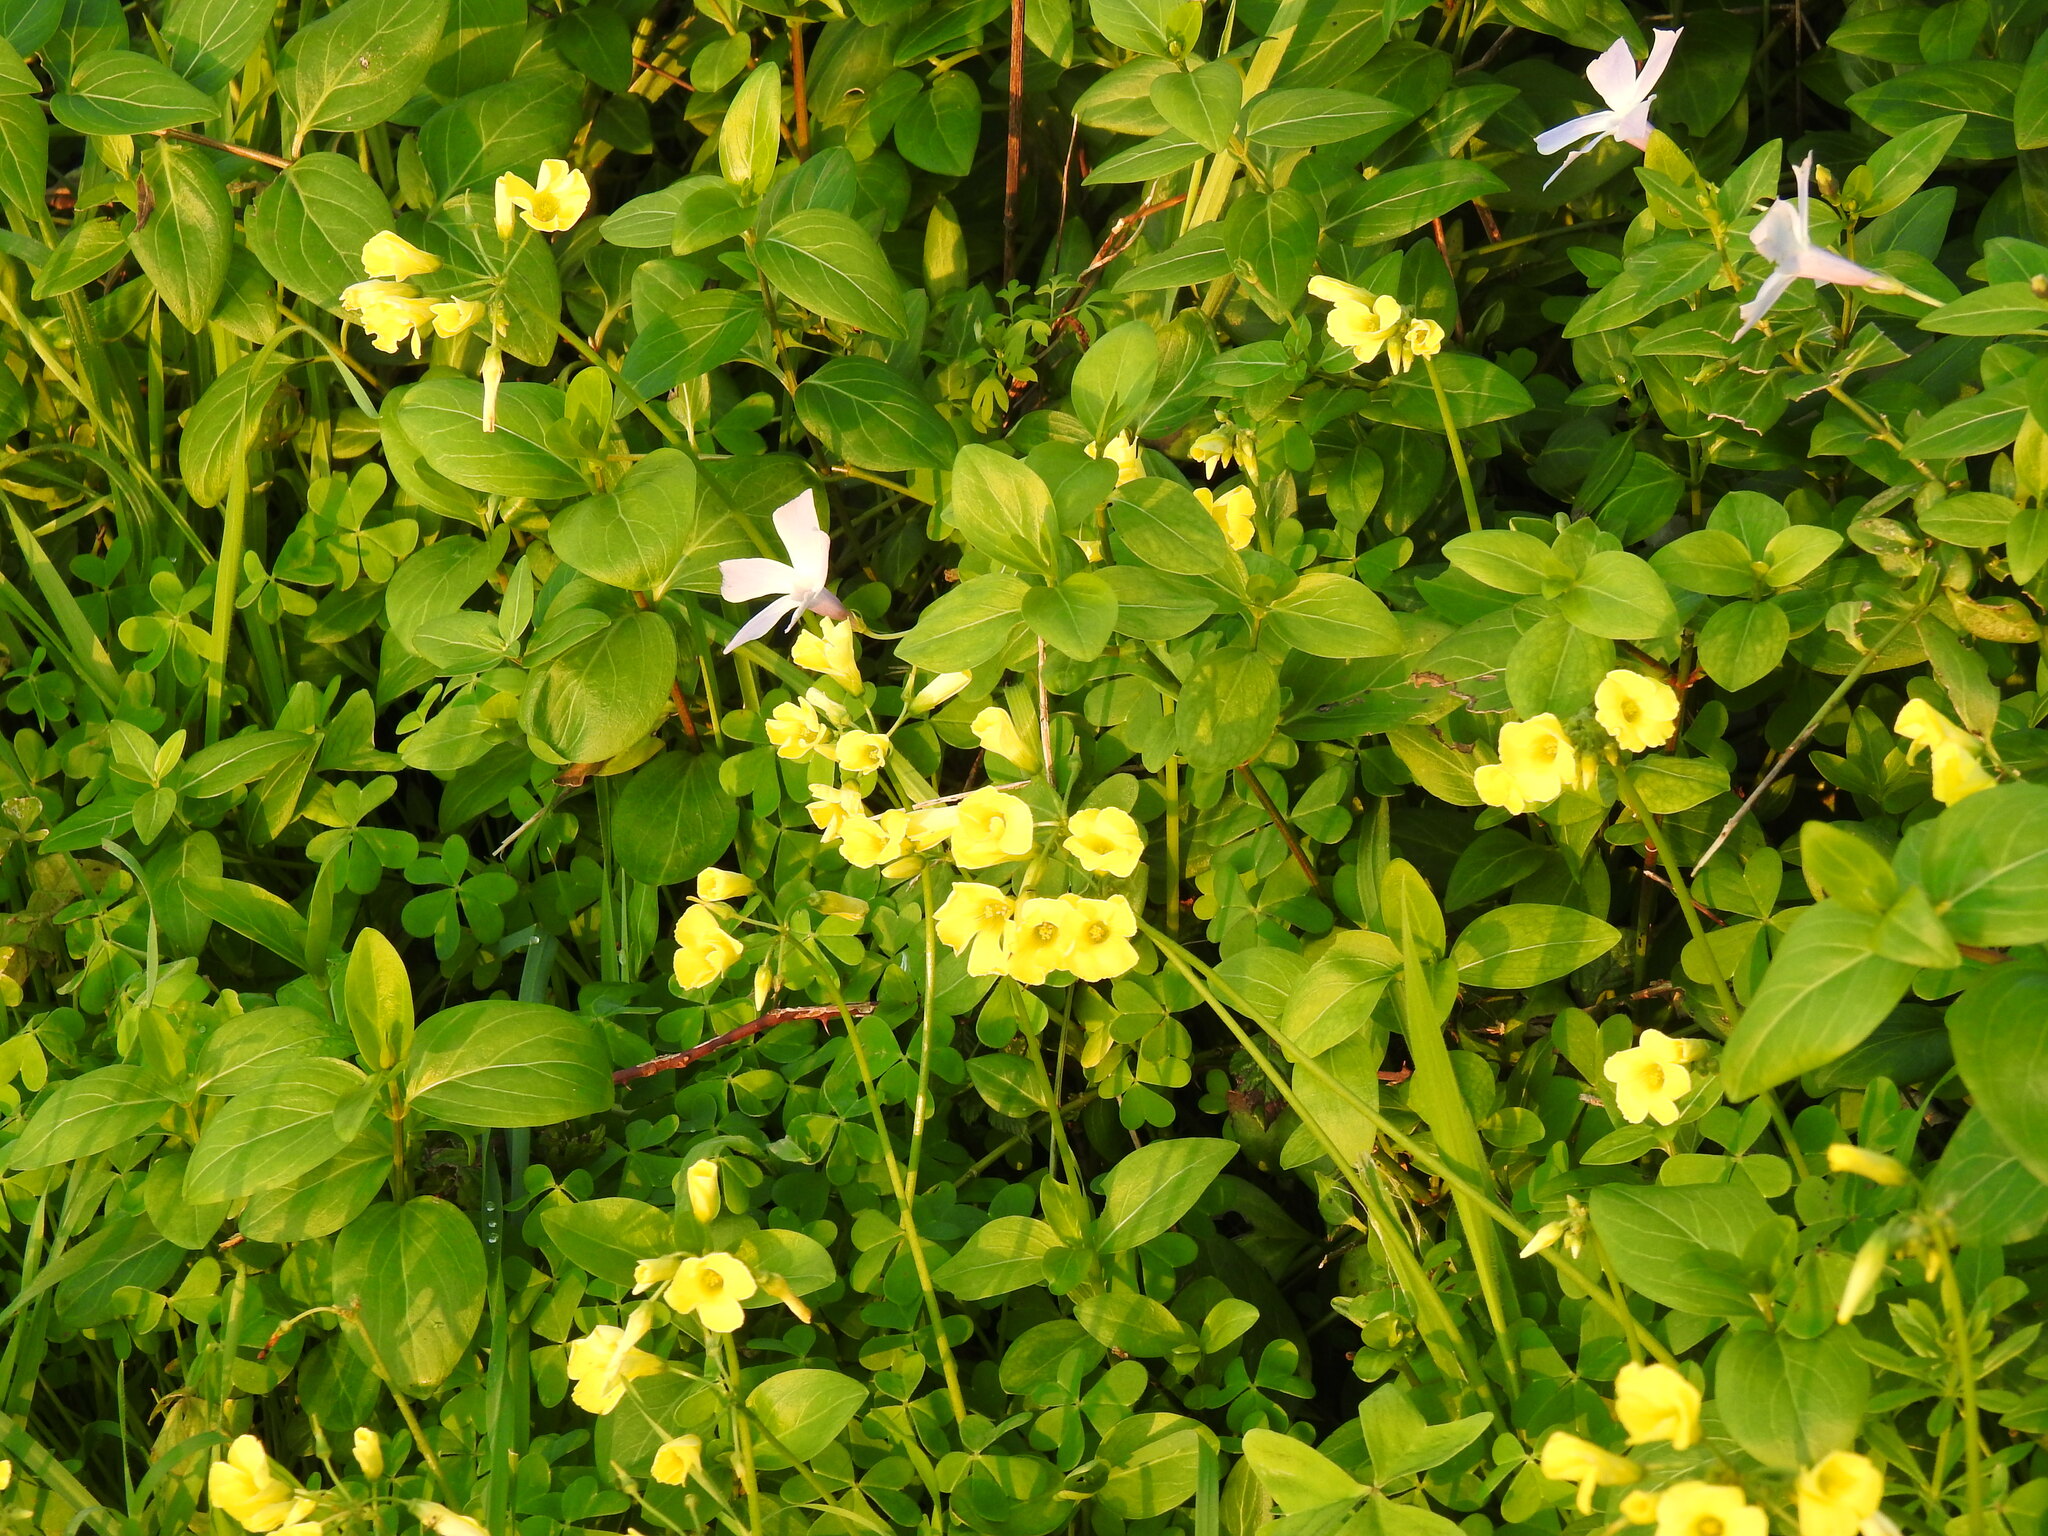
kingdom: Plantae
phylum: Tracheophyta
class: Magnoliopsida
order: Oxalidales
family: Oxalidaceae
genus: Oxalis
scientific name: Oxalis pes-caprae
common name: Bermuda-buttercup
